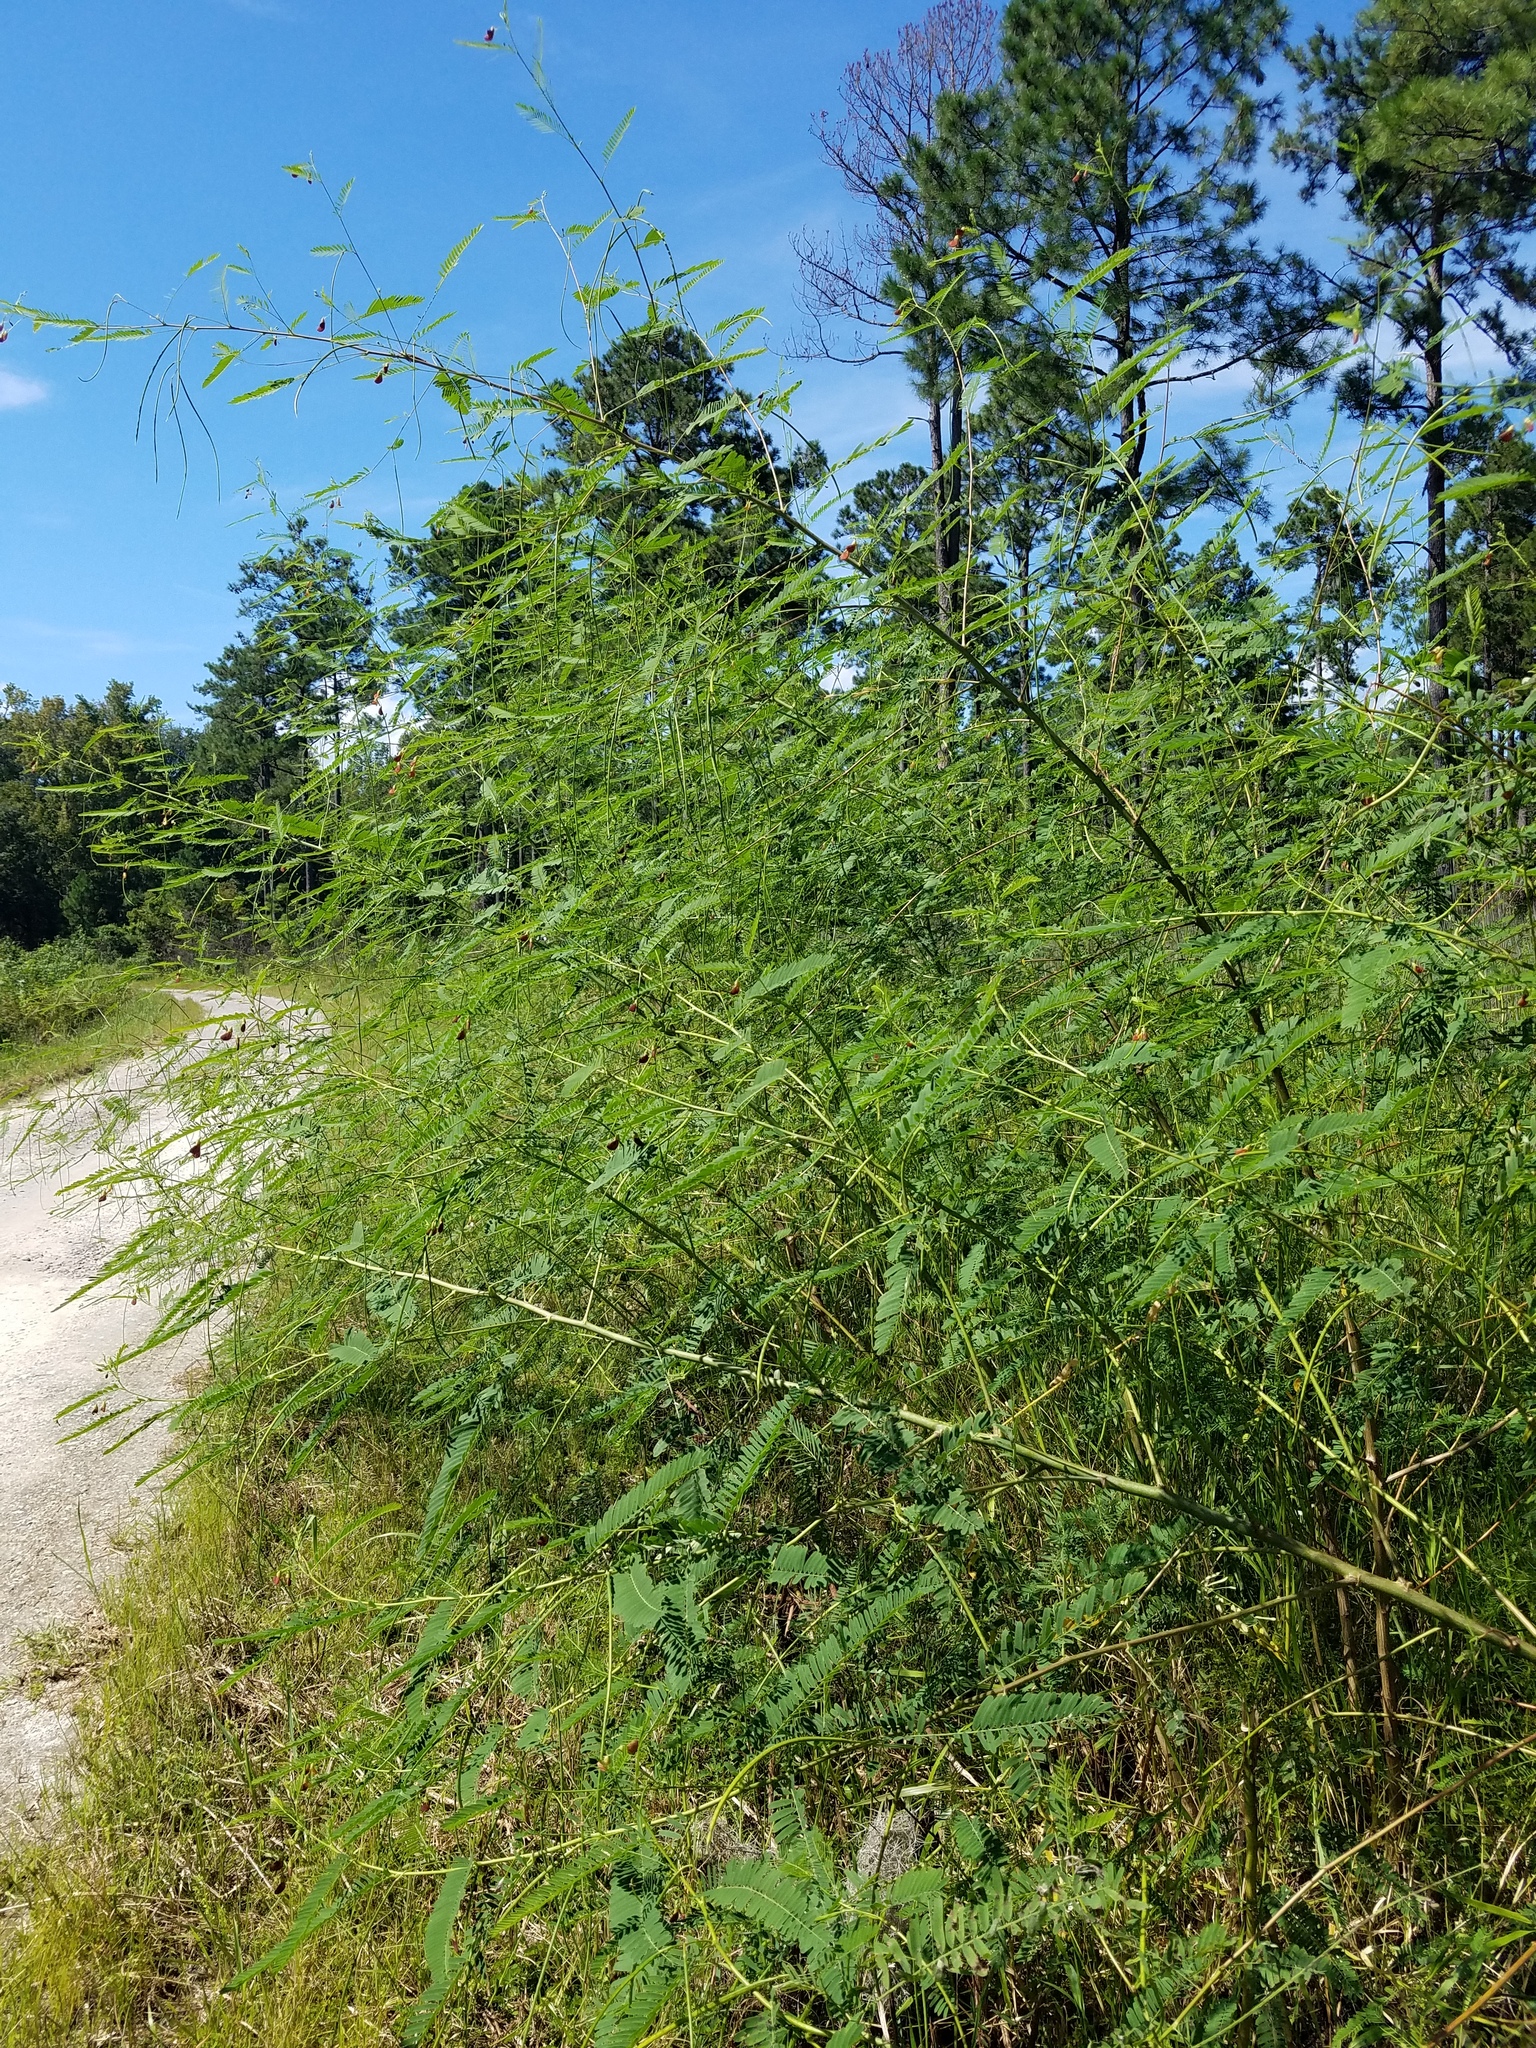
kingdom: Plantae
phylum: Tracheophyta
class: Magnoliopsida
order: Fabales
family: Fabaceae
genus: Sesbania
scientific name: Sesbania vesicaria
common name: Bagpod
